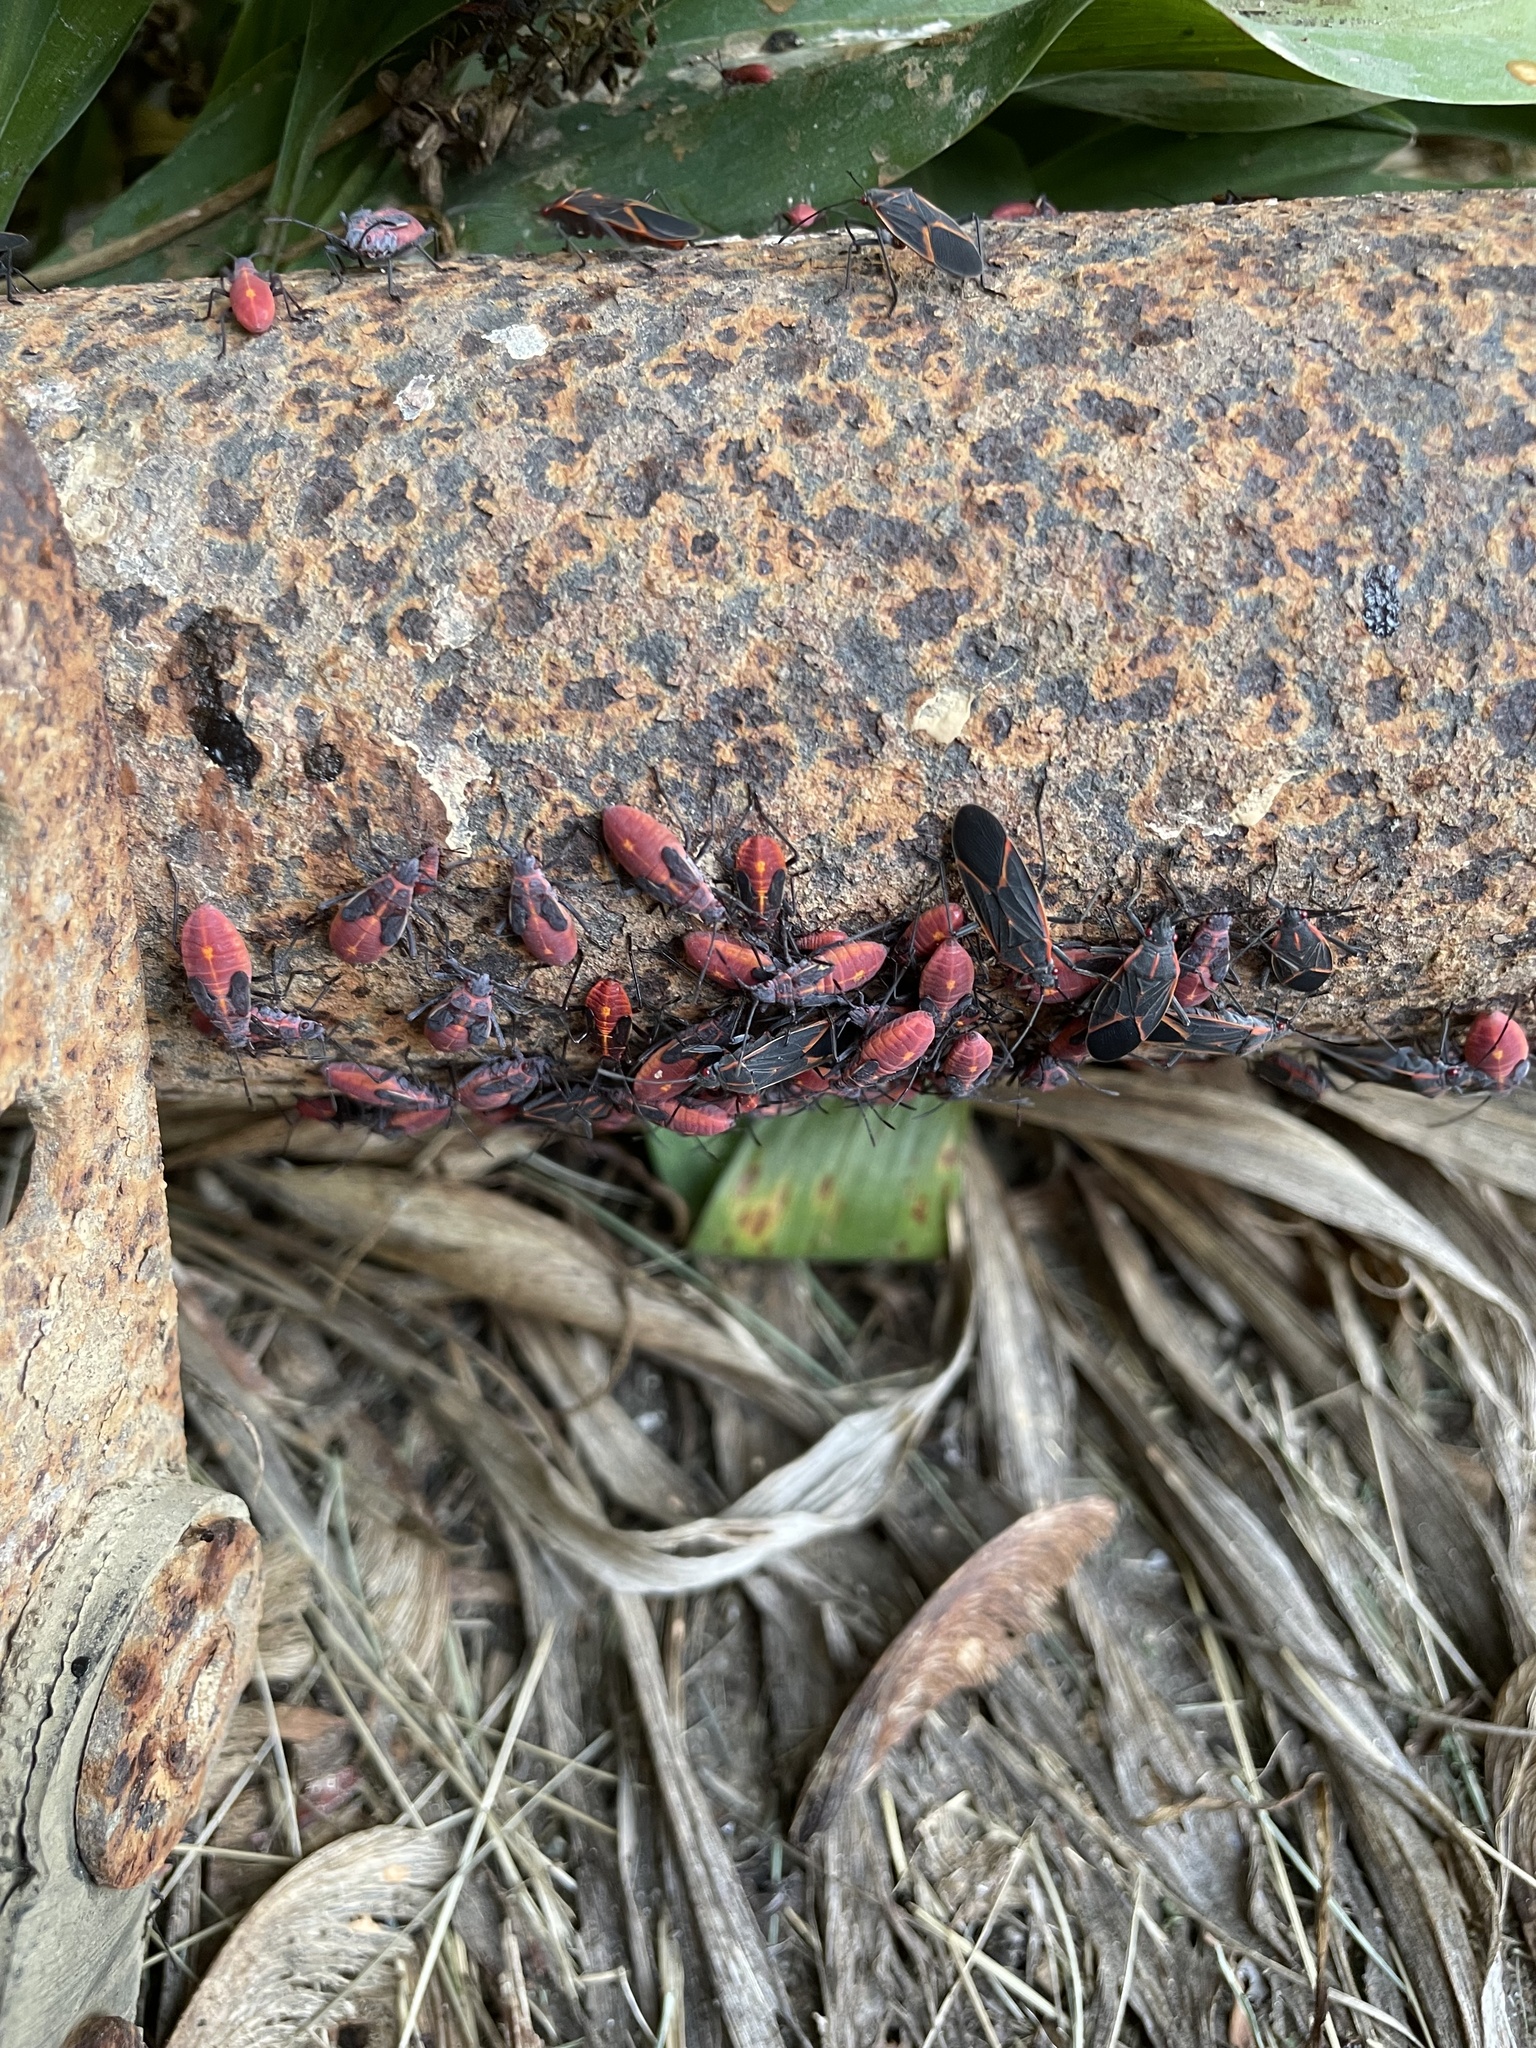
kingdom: Animalia
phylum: Arthropoda
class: Insecta
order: Hemiptera
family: Rhopalidae
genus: Boisea
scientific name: Boisea trivittata
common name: Boxelder bug
